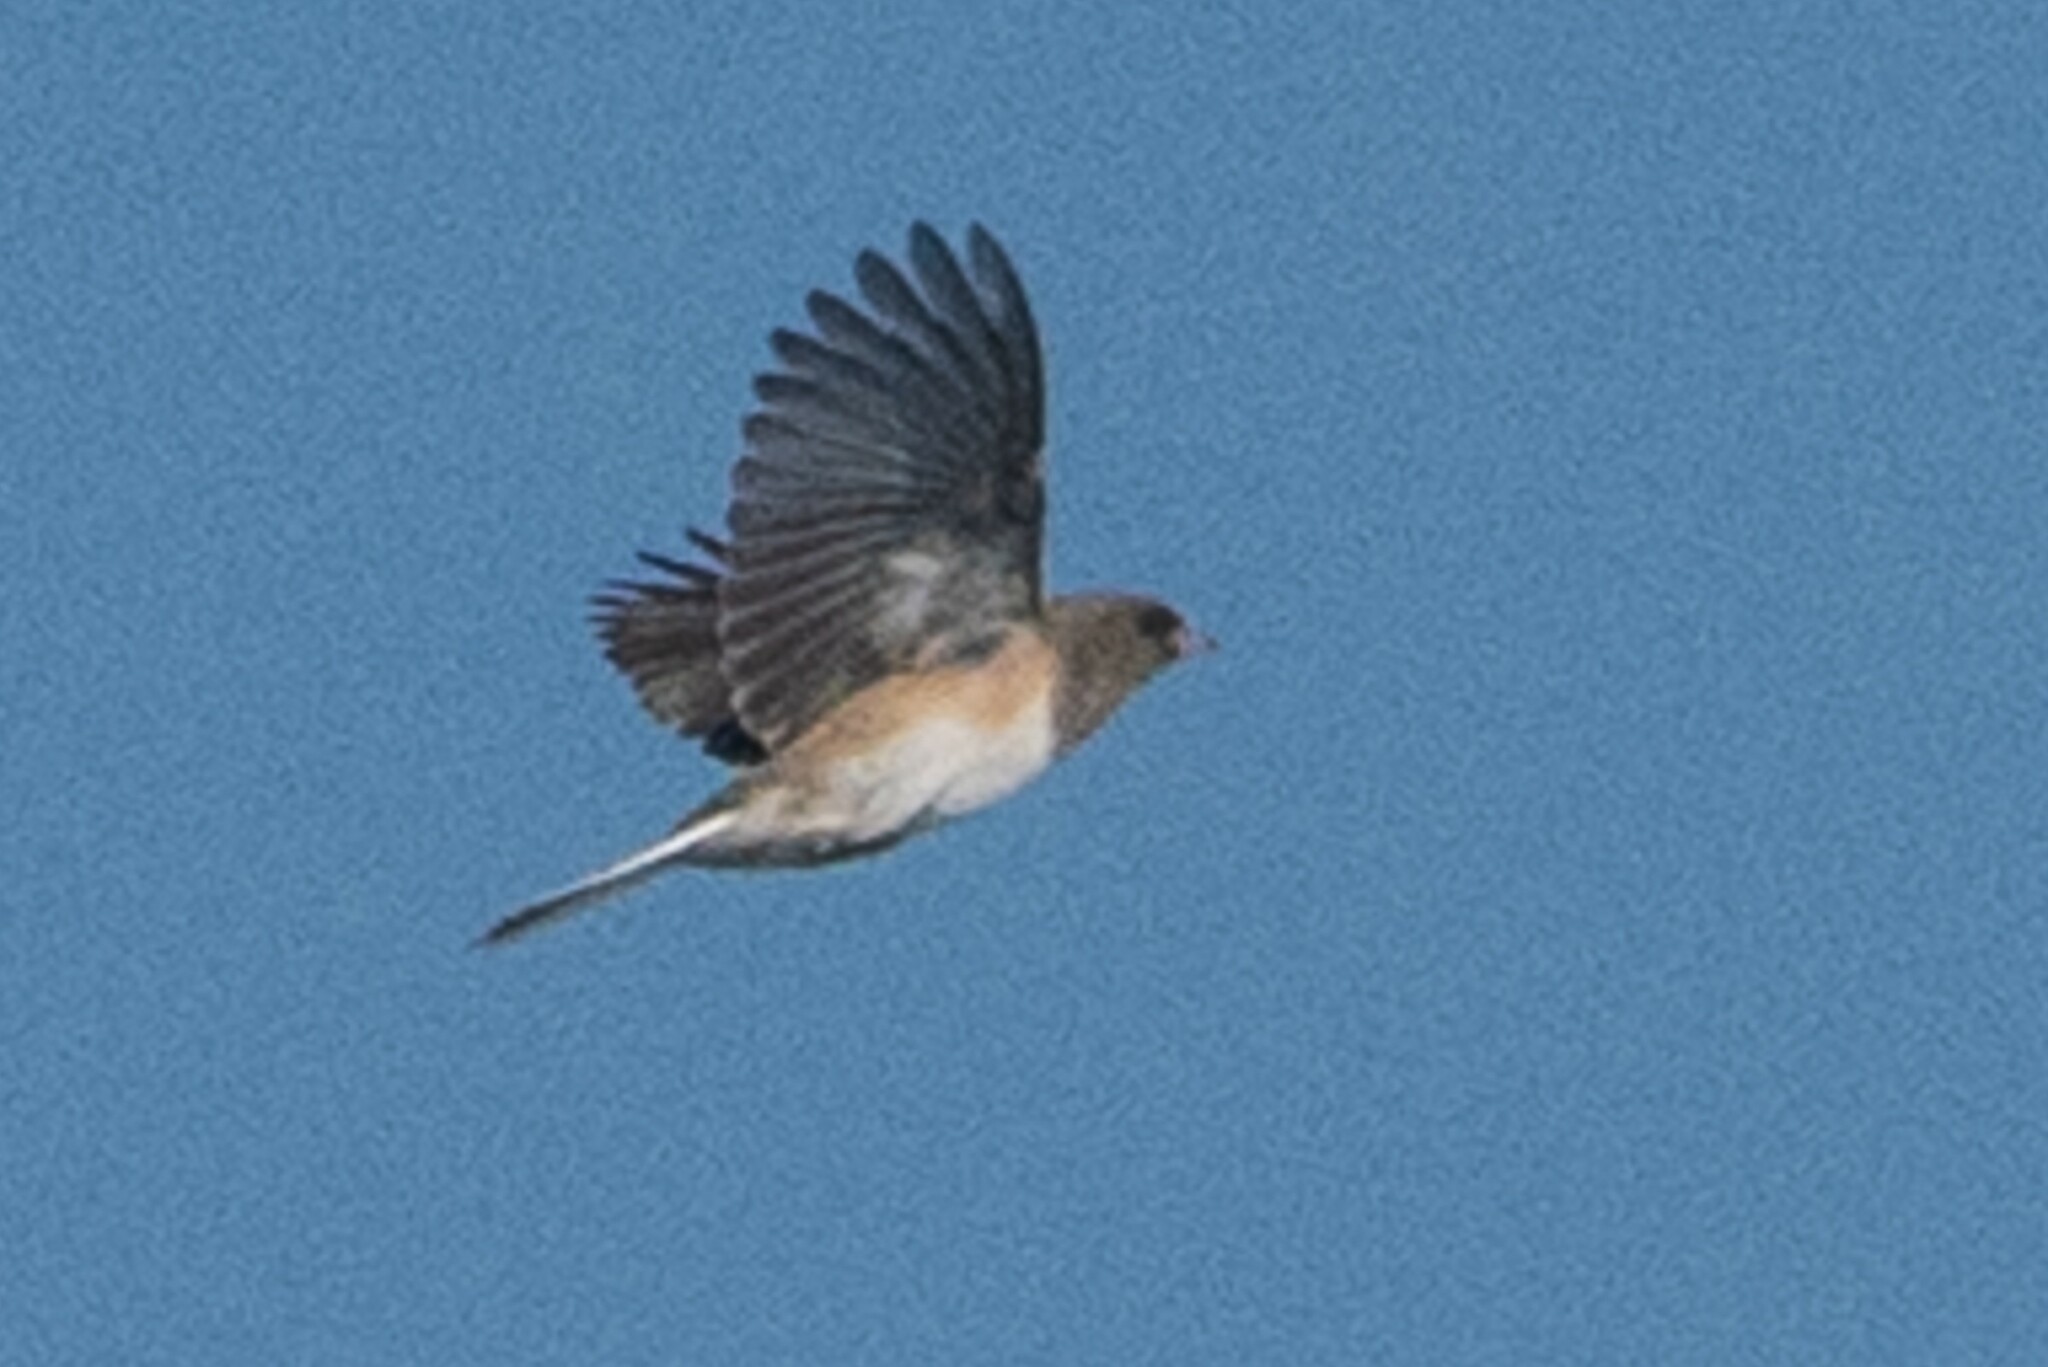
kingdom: Animalia
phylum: Chordata
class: Aves
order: Passeriformes
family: Passerellidae
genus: Junco
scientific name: Junco hyemalis
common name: Dark-eyed junco
